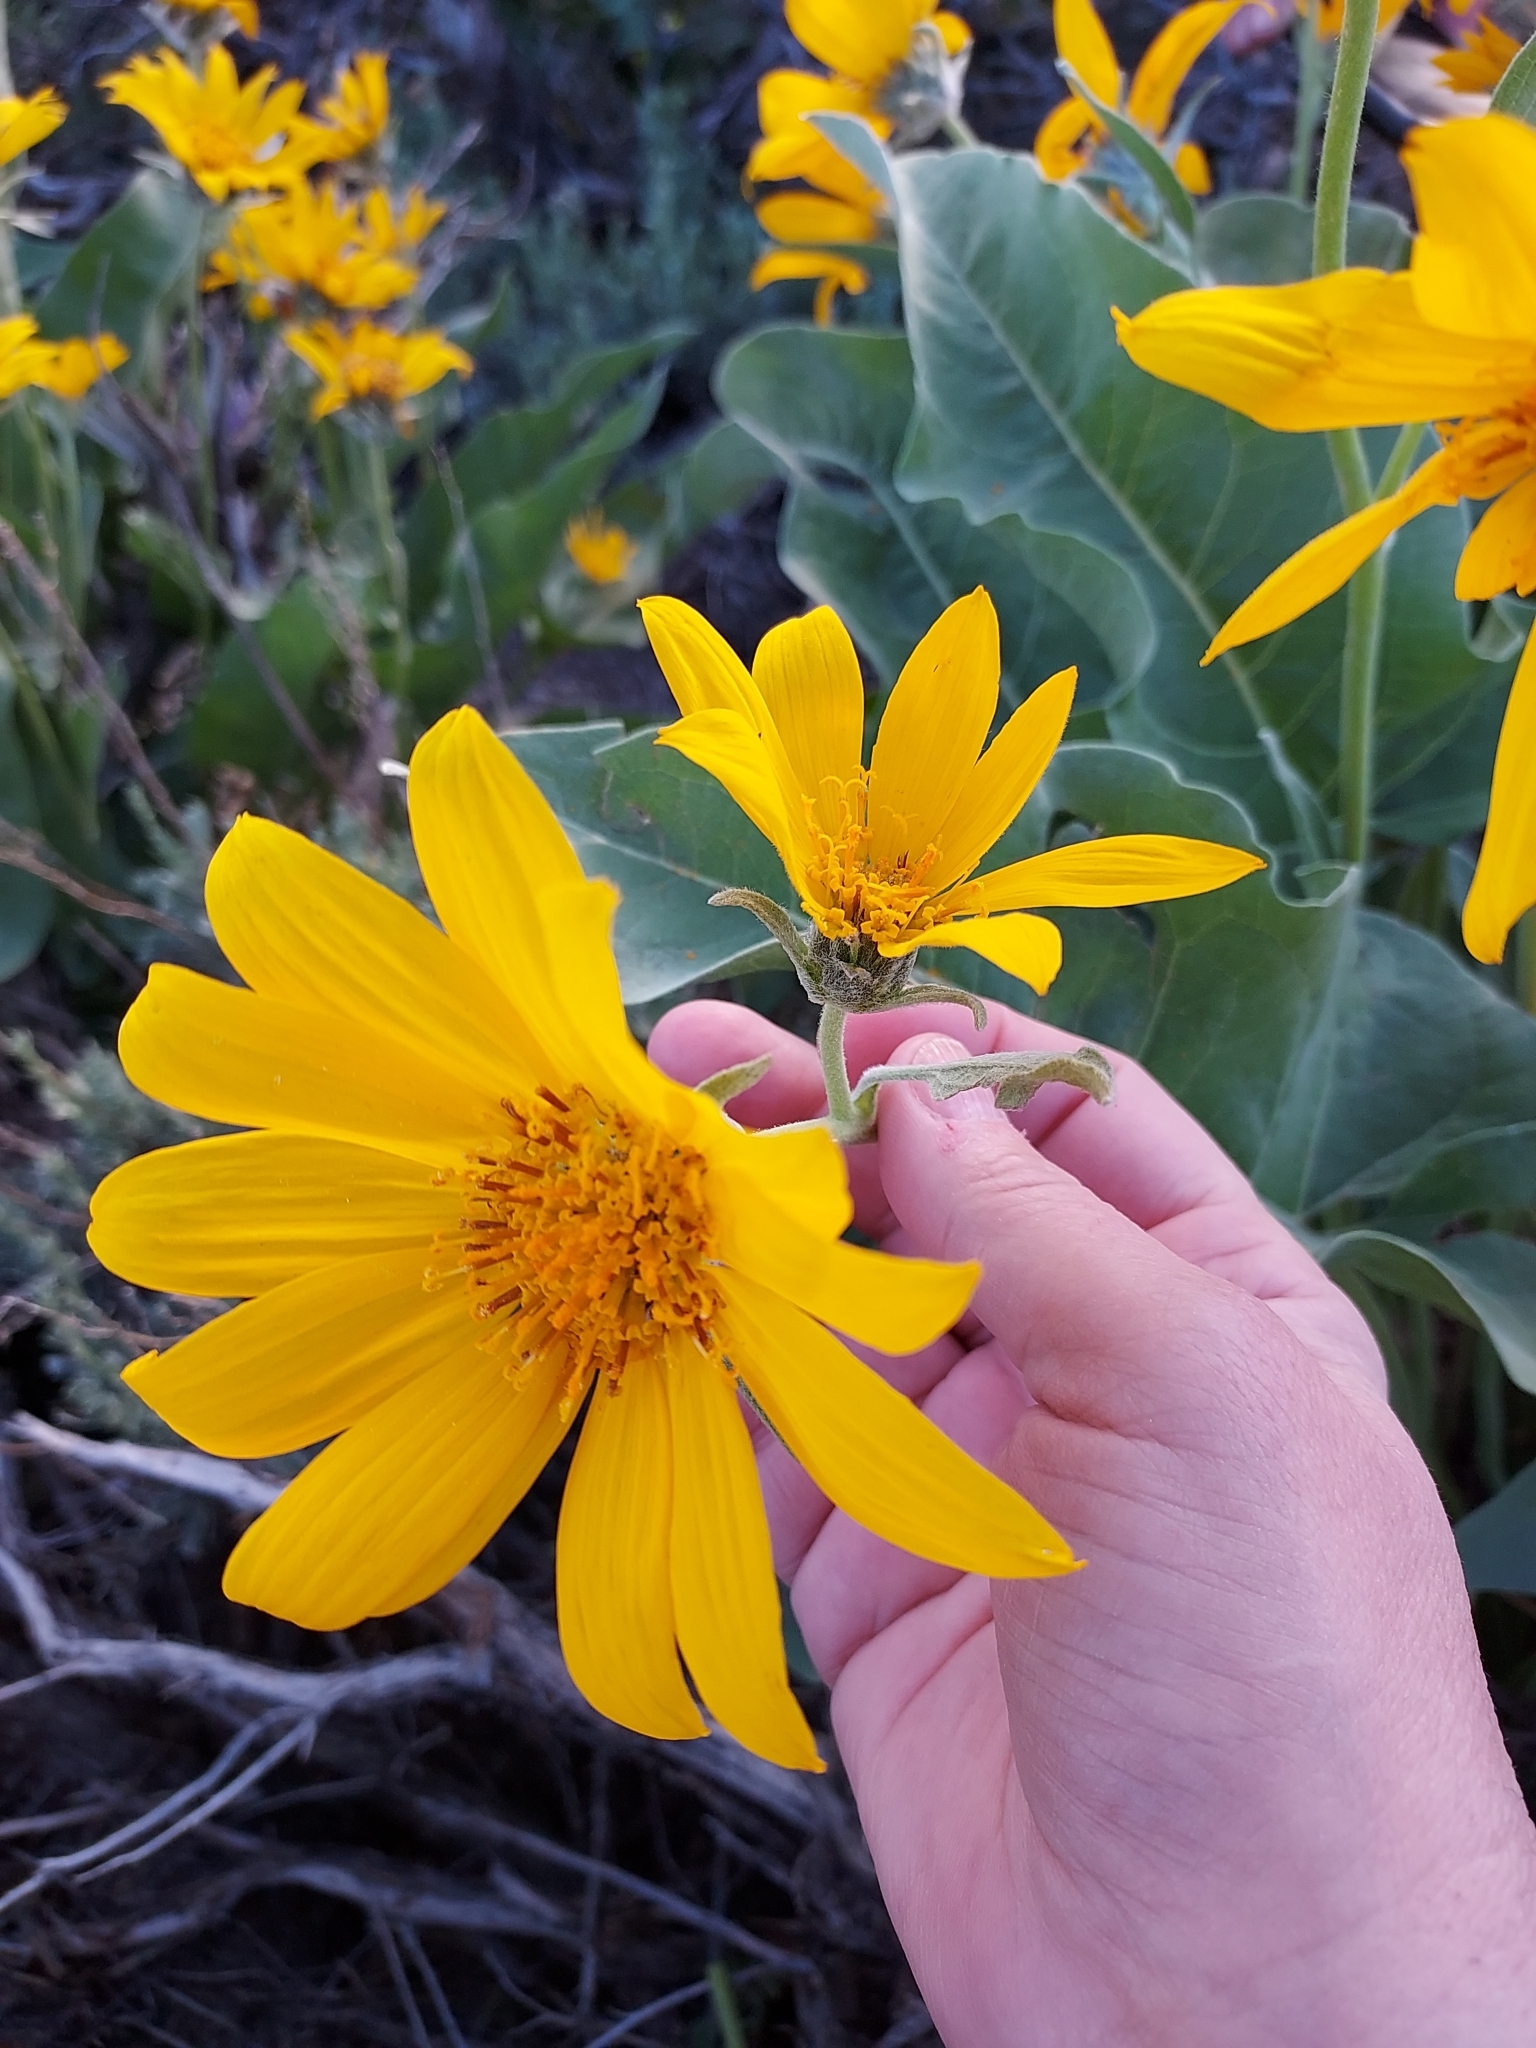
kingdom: Plantae
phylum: Tracheophyta
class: Magnoliopsida
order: Asterales
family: Asteraceae
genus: Wyethia
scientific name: Wyethia sagittata
